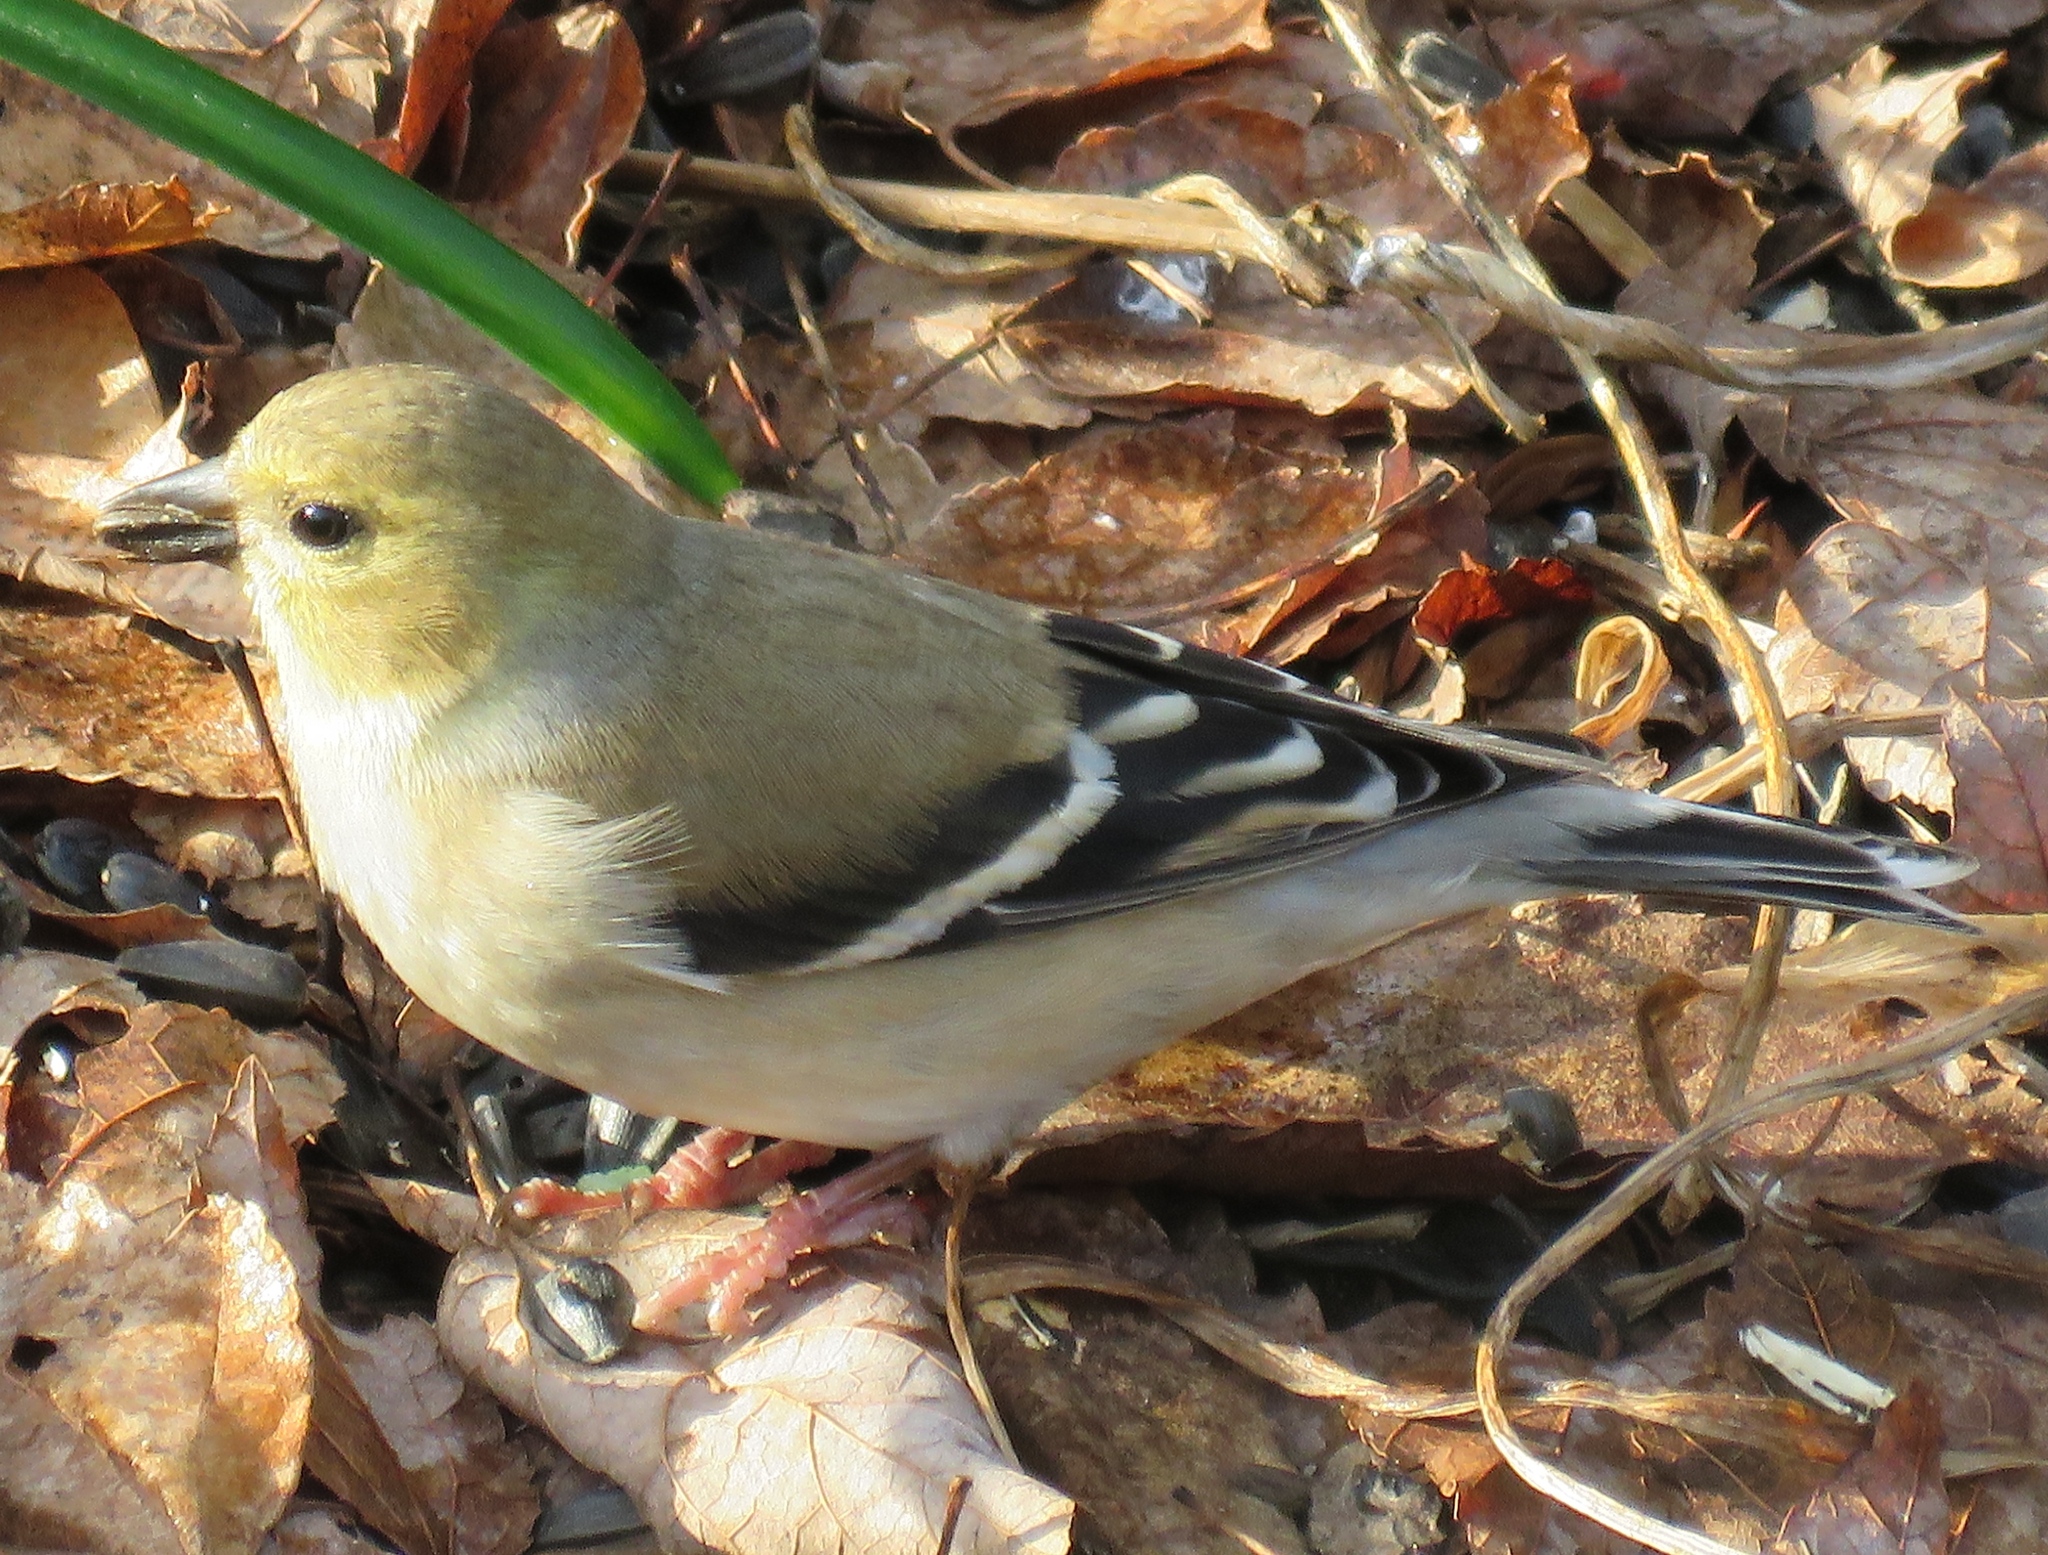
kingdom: Animalia
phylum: Chordata
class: Aves
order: Passeriformes
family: Fringillidae
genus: Spinus
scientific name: Spinus tristis
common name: American goldfinch
